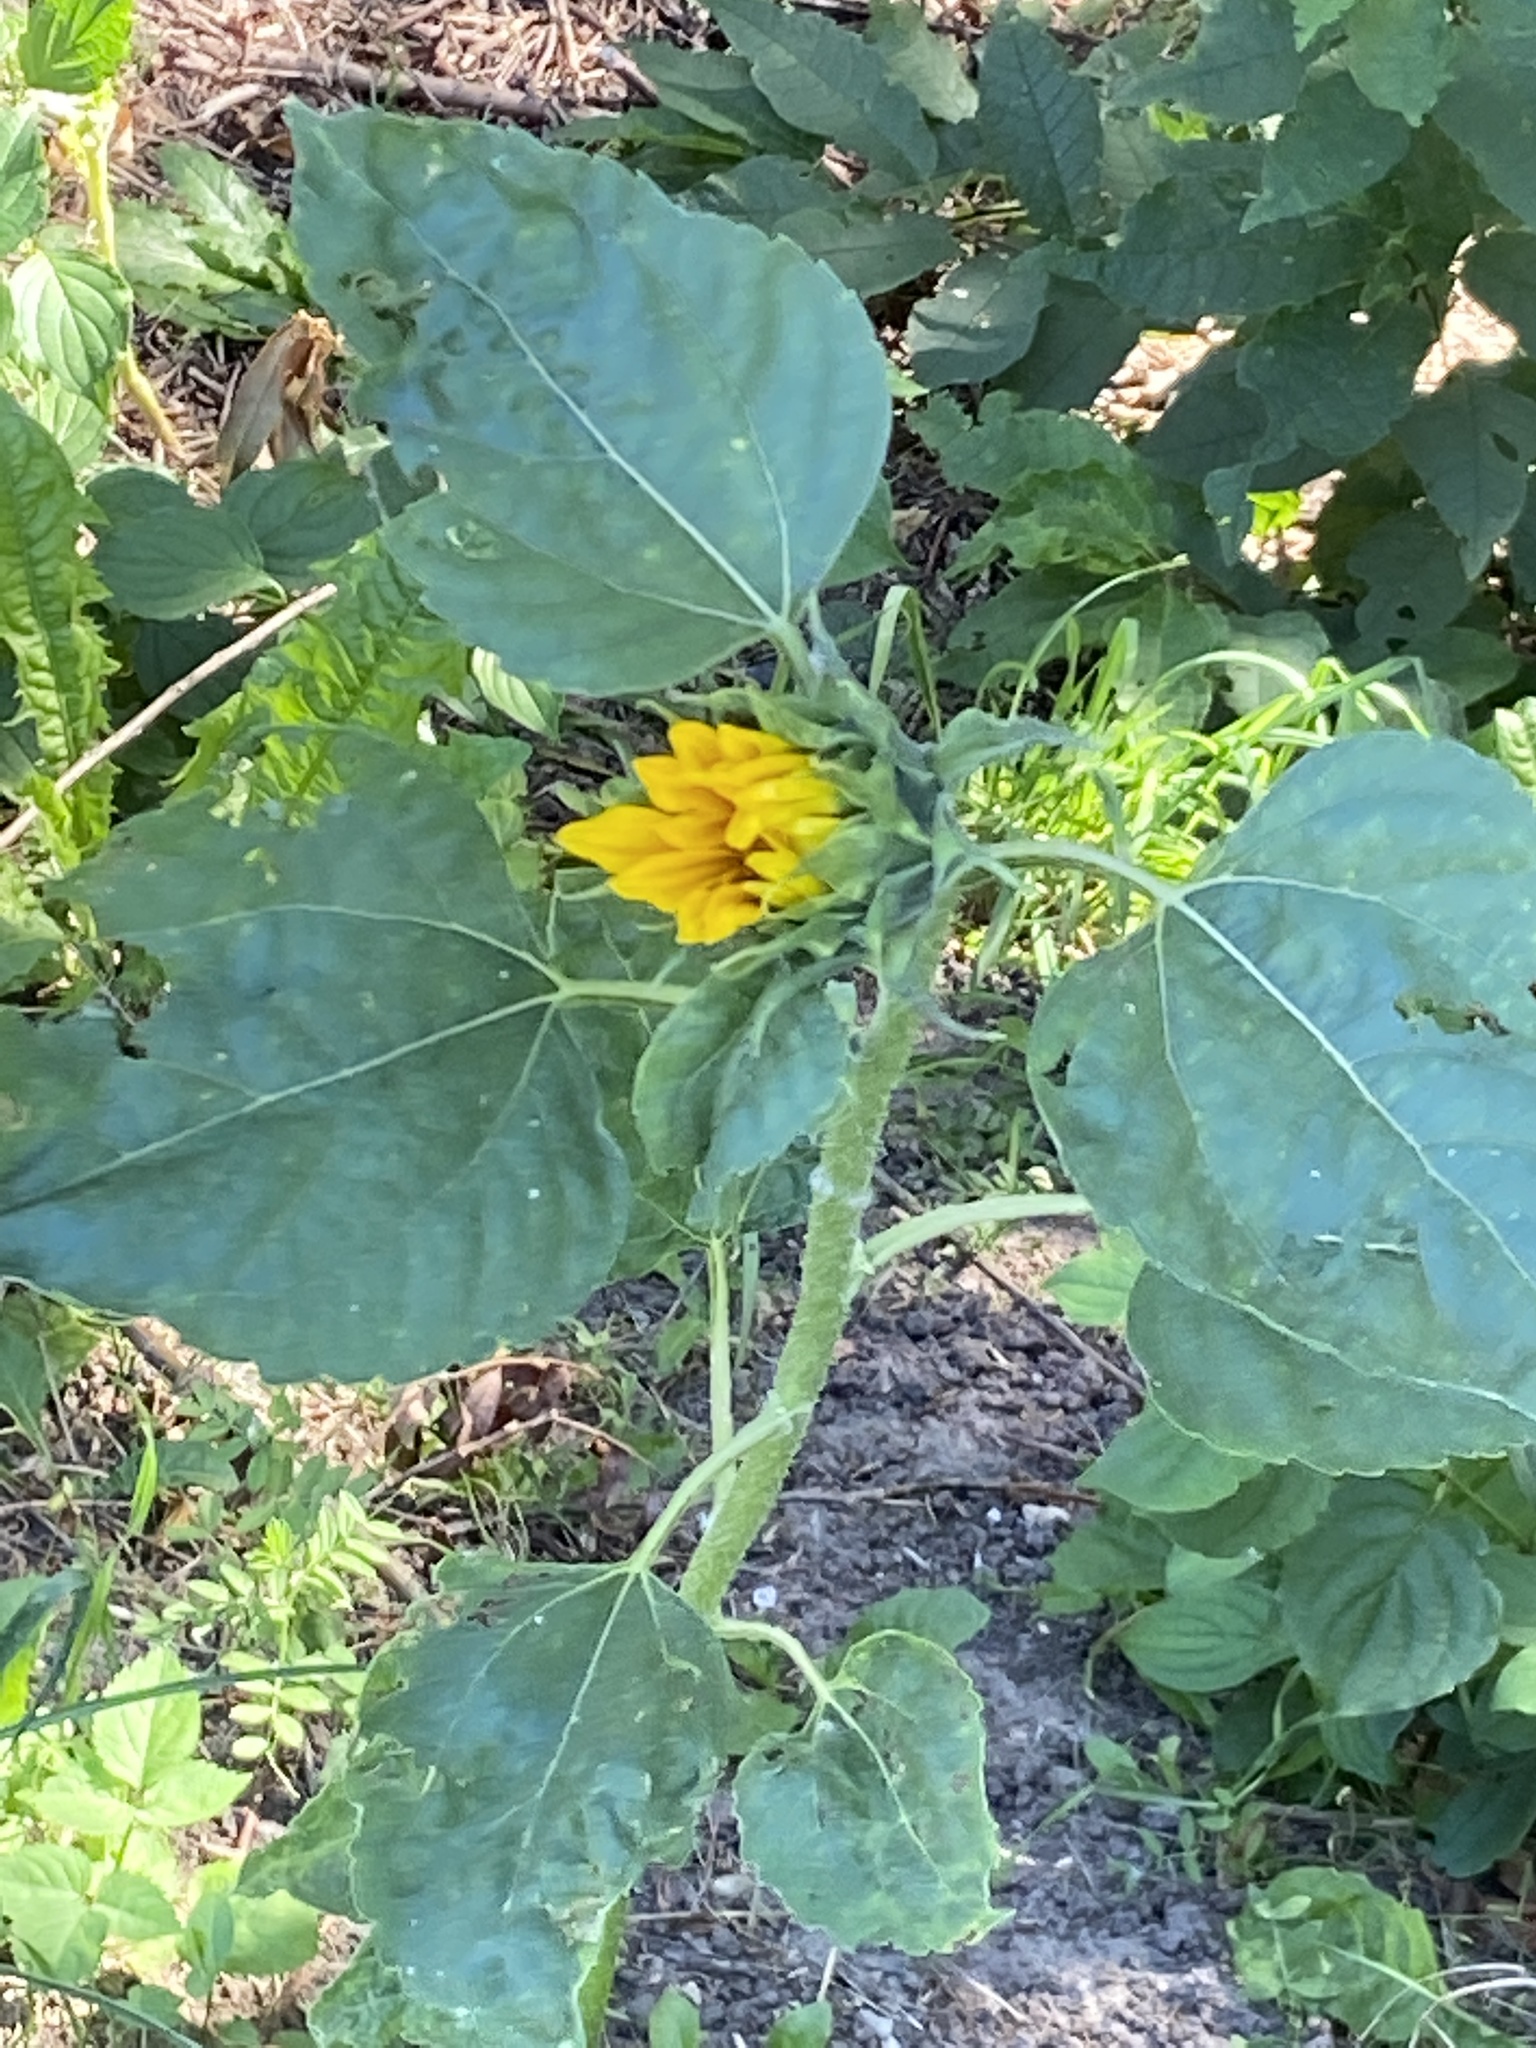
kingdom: Plantae
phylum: Tracheophyta
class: Magnoliopsida
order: Asterales
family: Asteraceae
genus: Helianthus
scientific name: Helianthus annuus
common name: Sunflower
